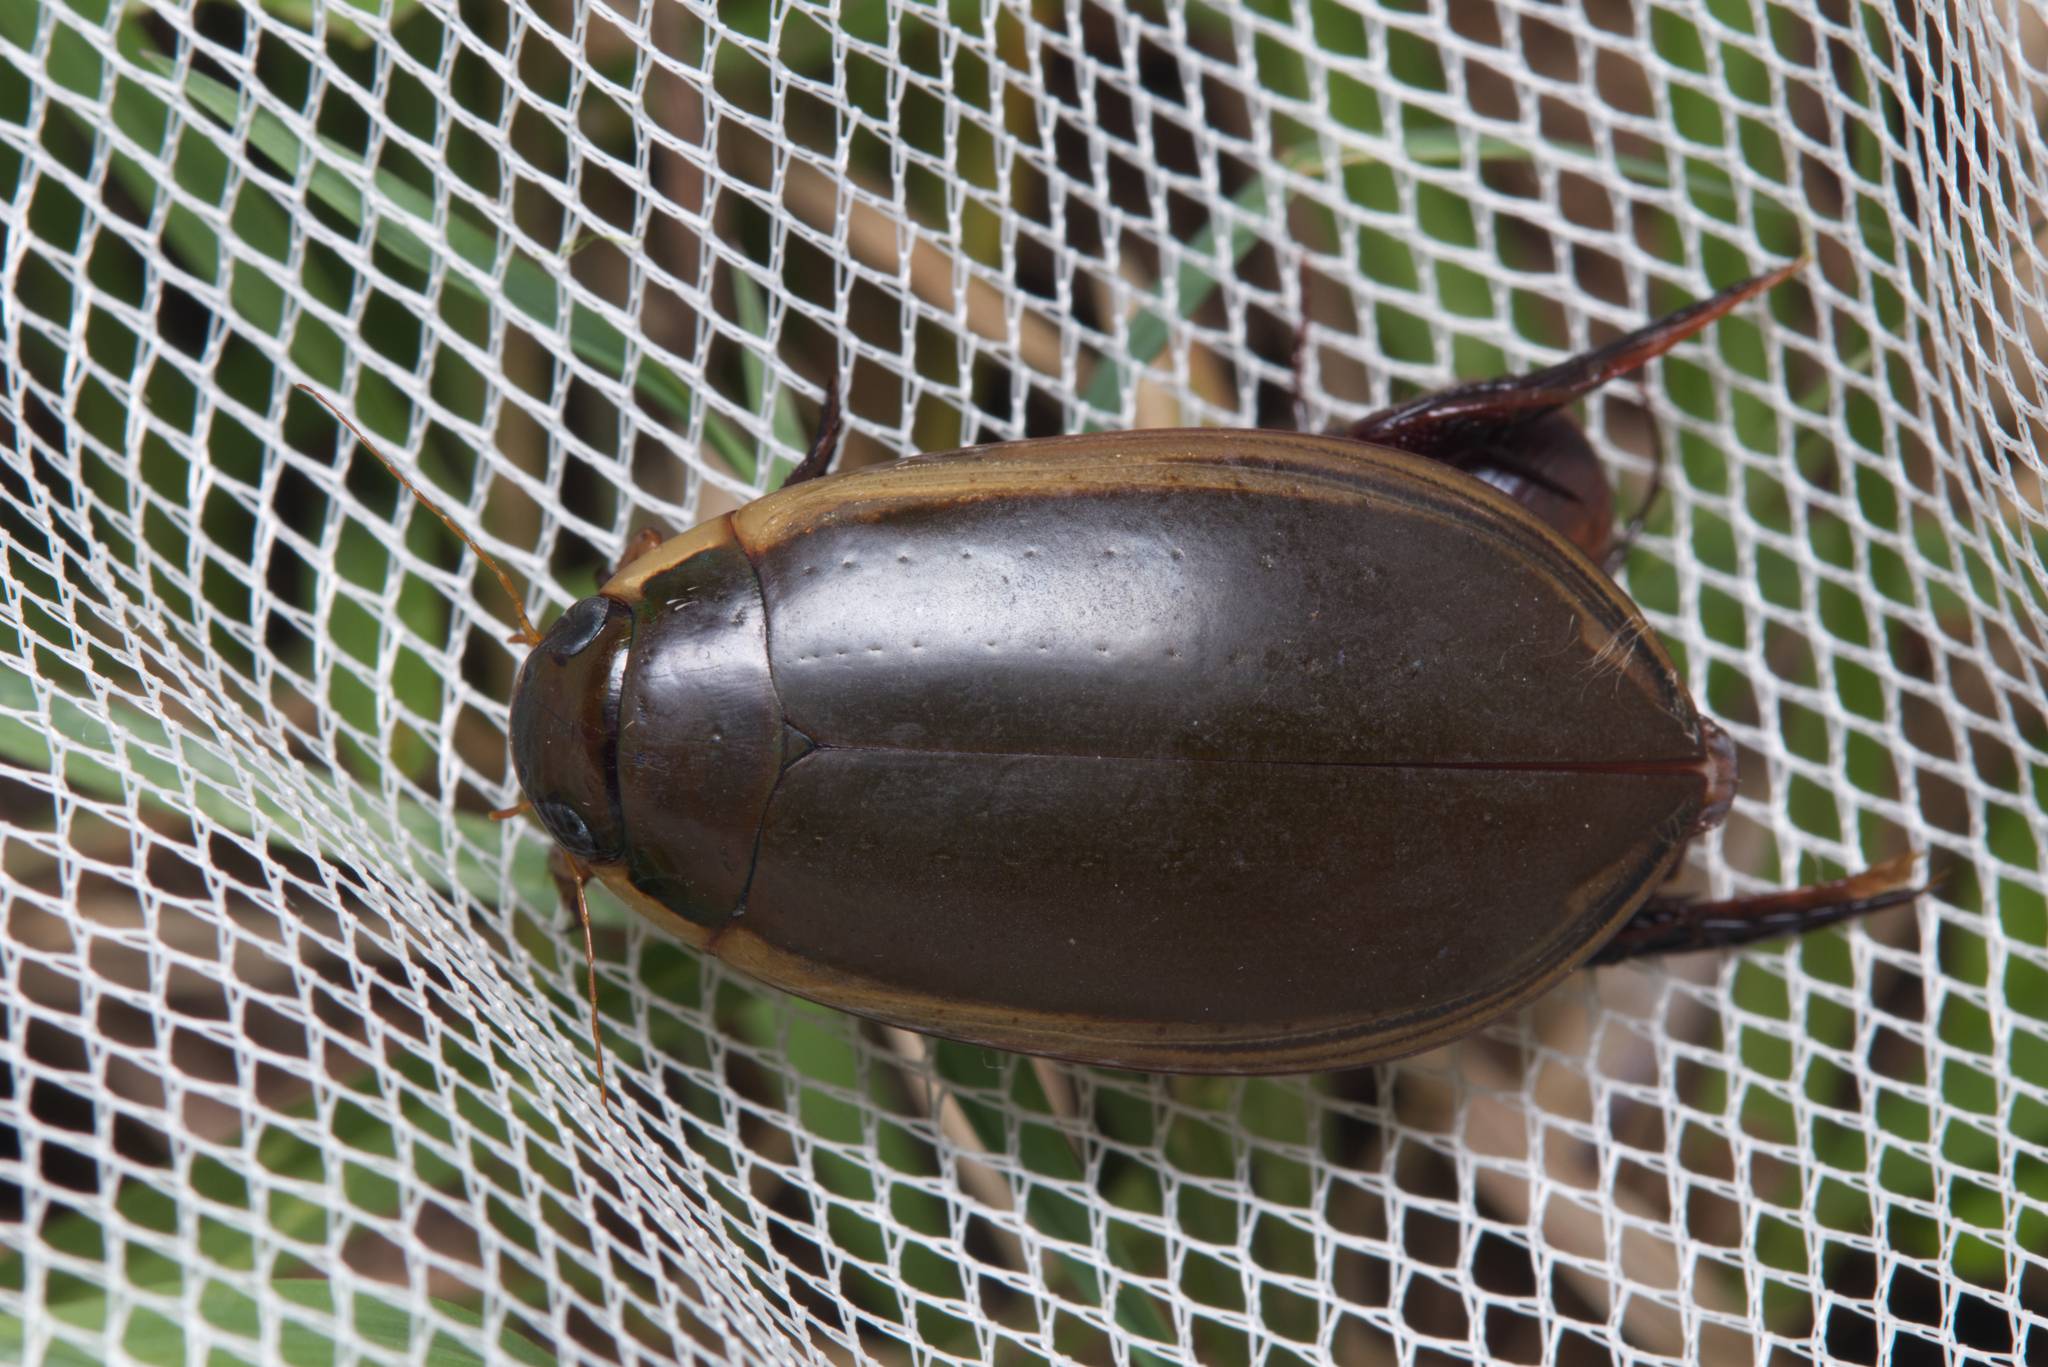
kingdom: Animalia
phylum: Arthropoda
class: Insecta
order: Coleoptera
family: Dytiscidae
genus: Cybister
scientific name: Cybister tripunctatus
